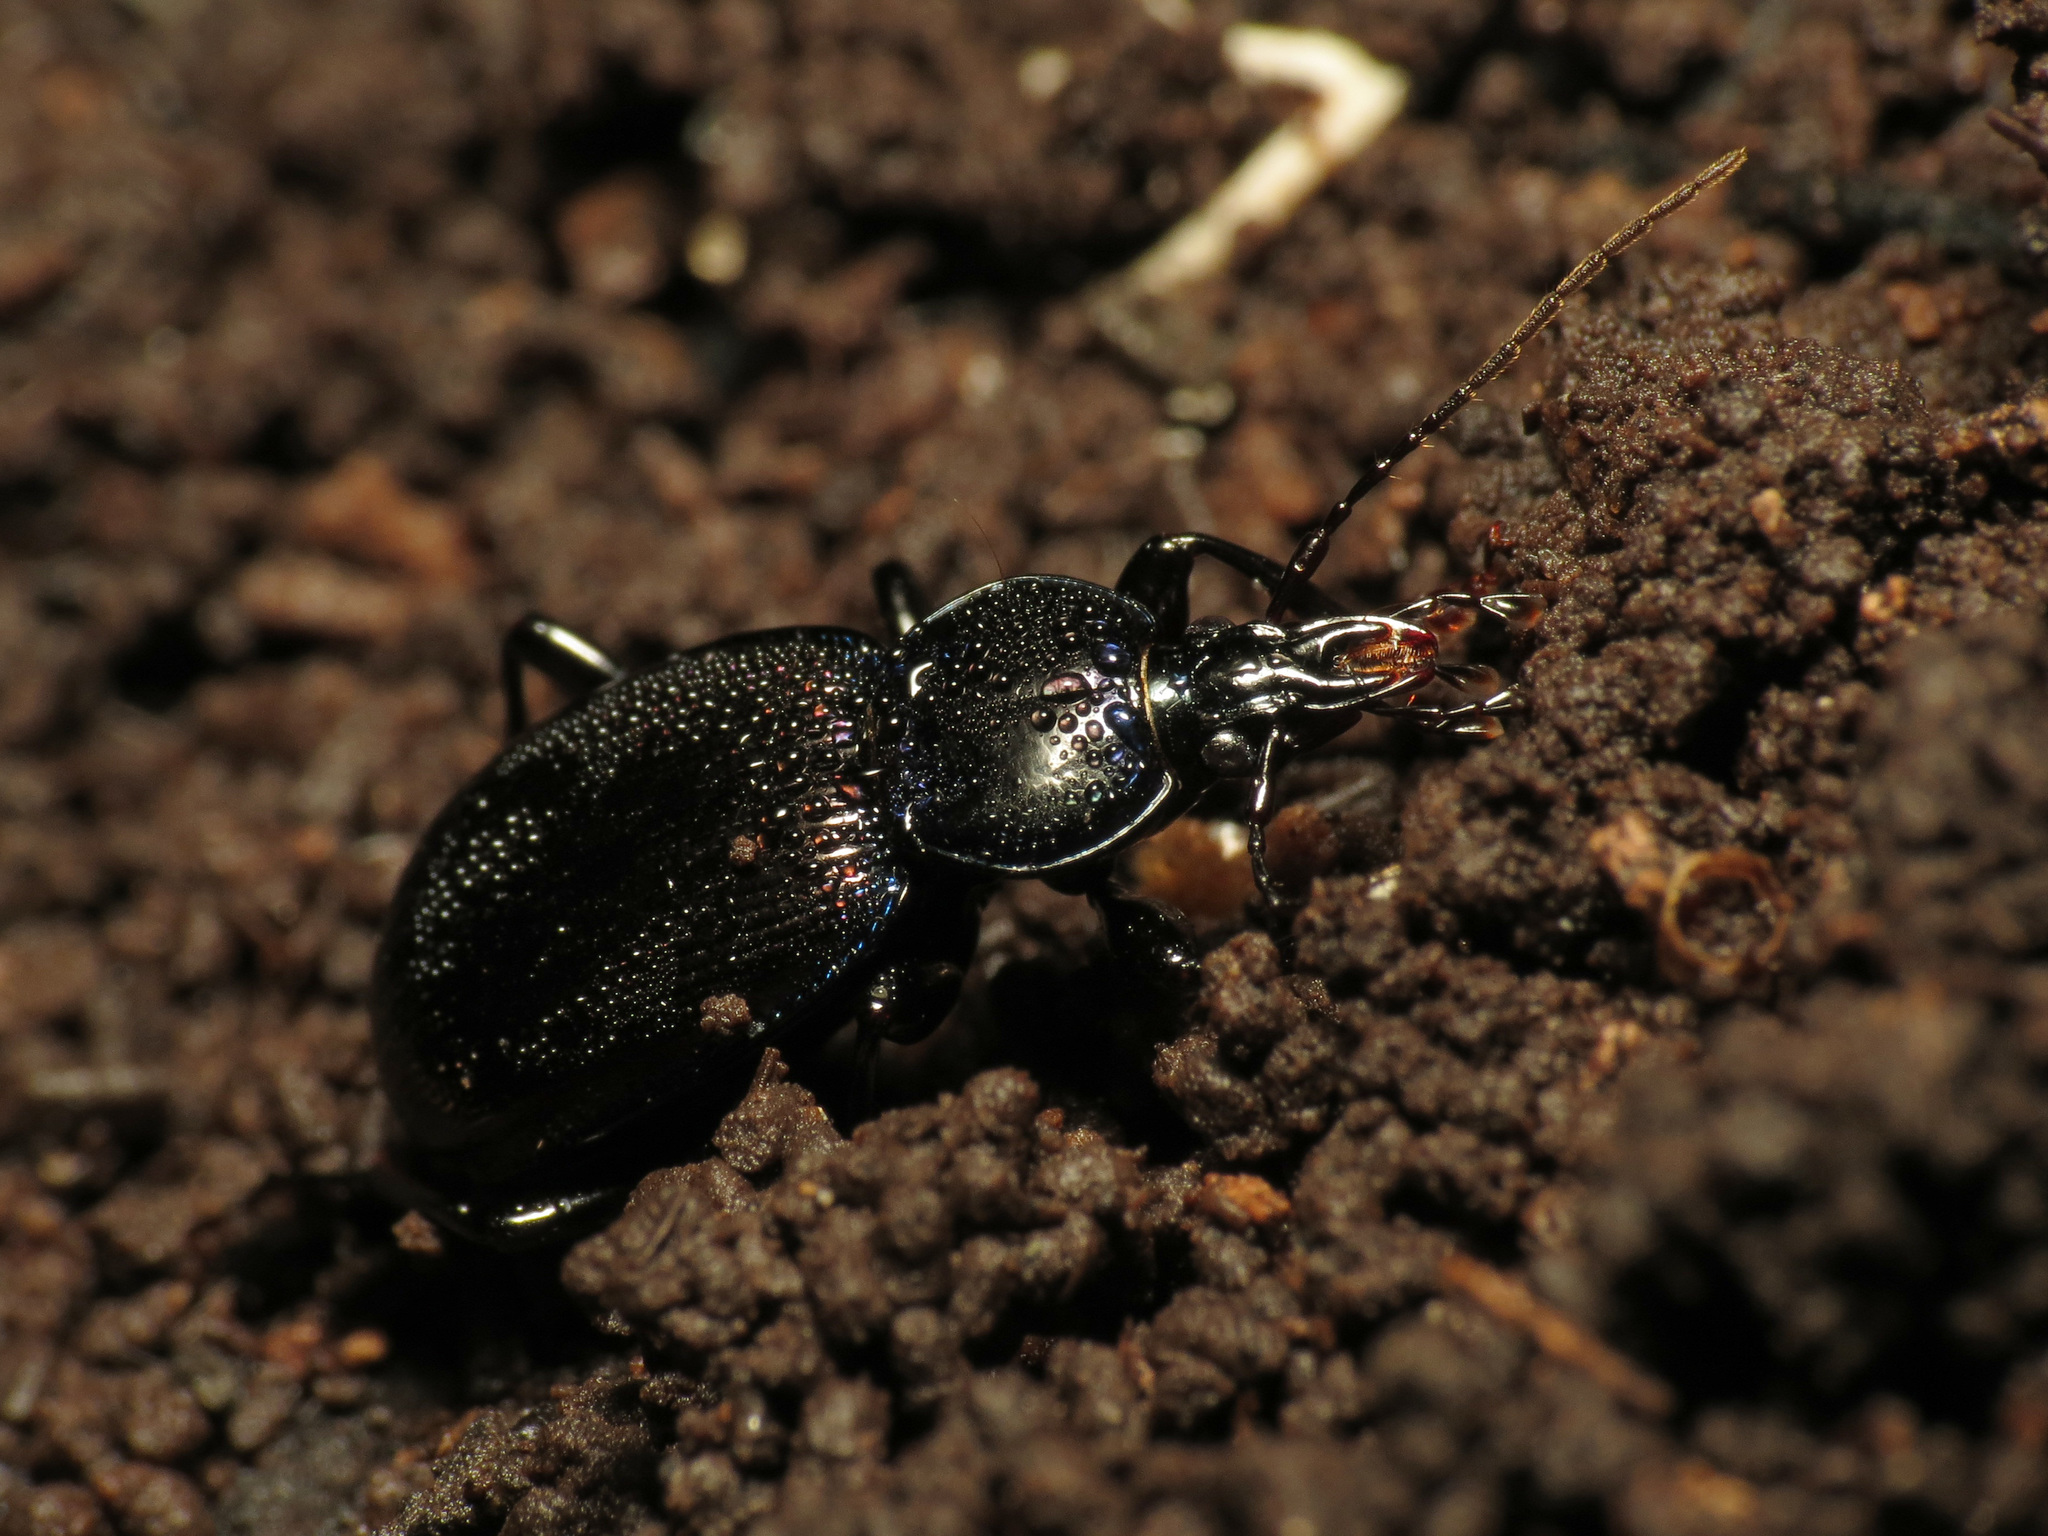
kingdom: Animalia
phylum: Arthropoda
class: Insecta
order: Coleoptera
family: Carabidae
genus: Sphaeroderus
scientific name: Sphaeroderus stenostomus
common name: Small snail-eating ground beetle
